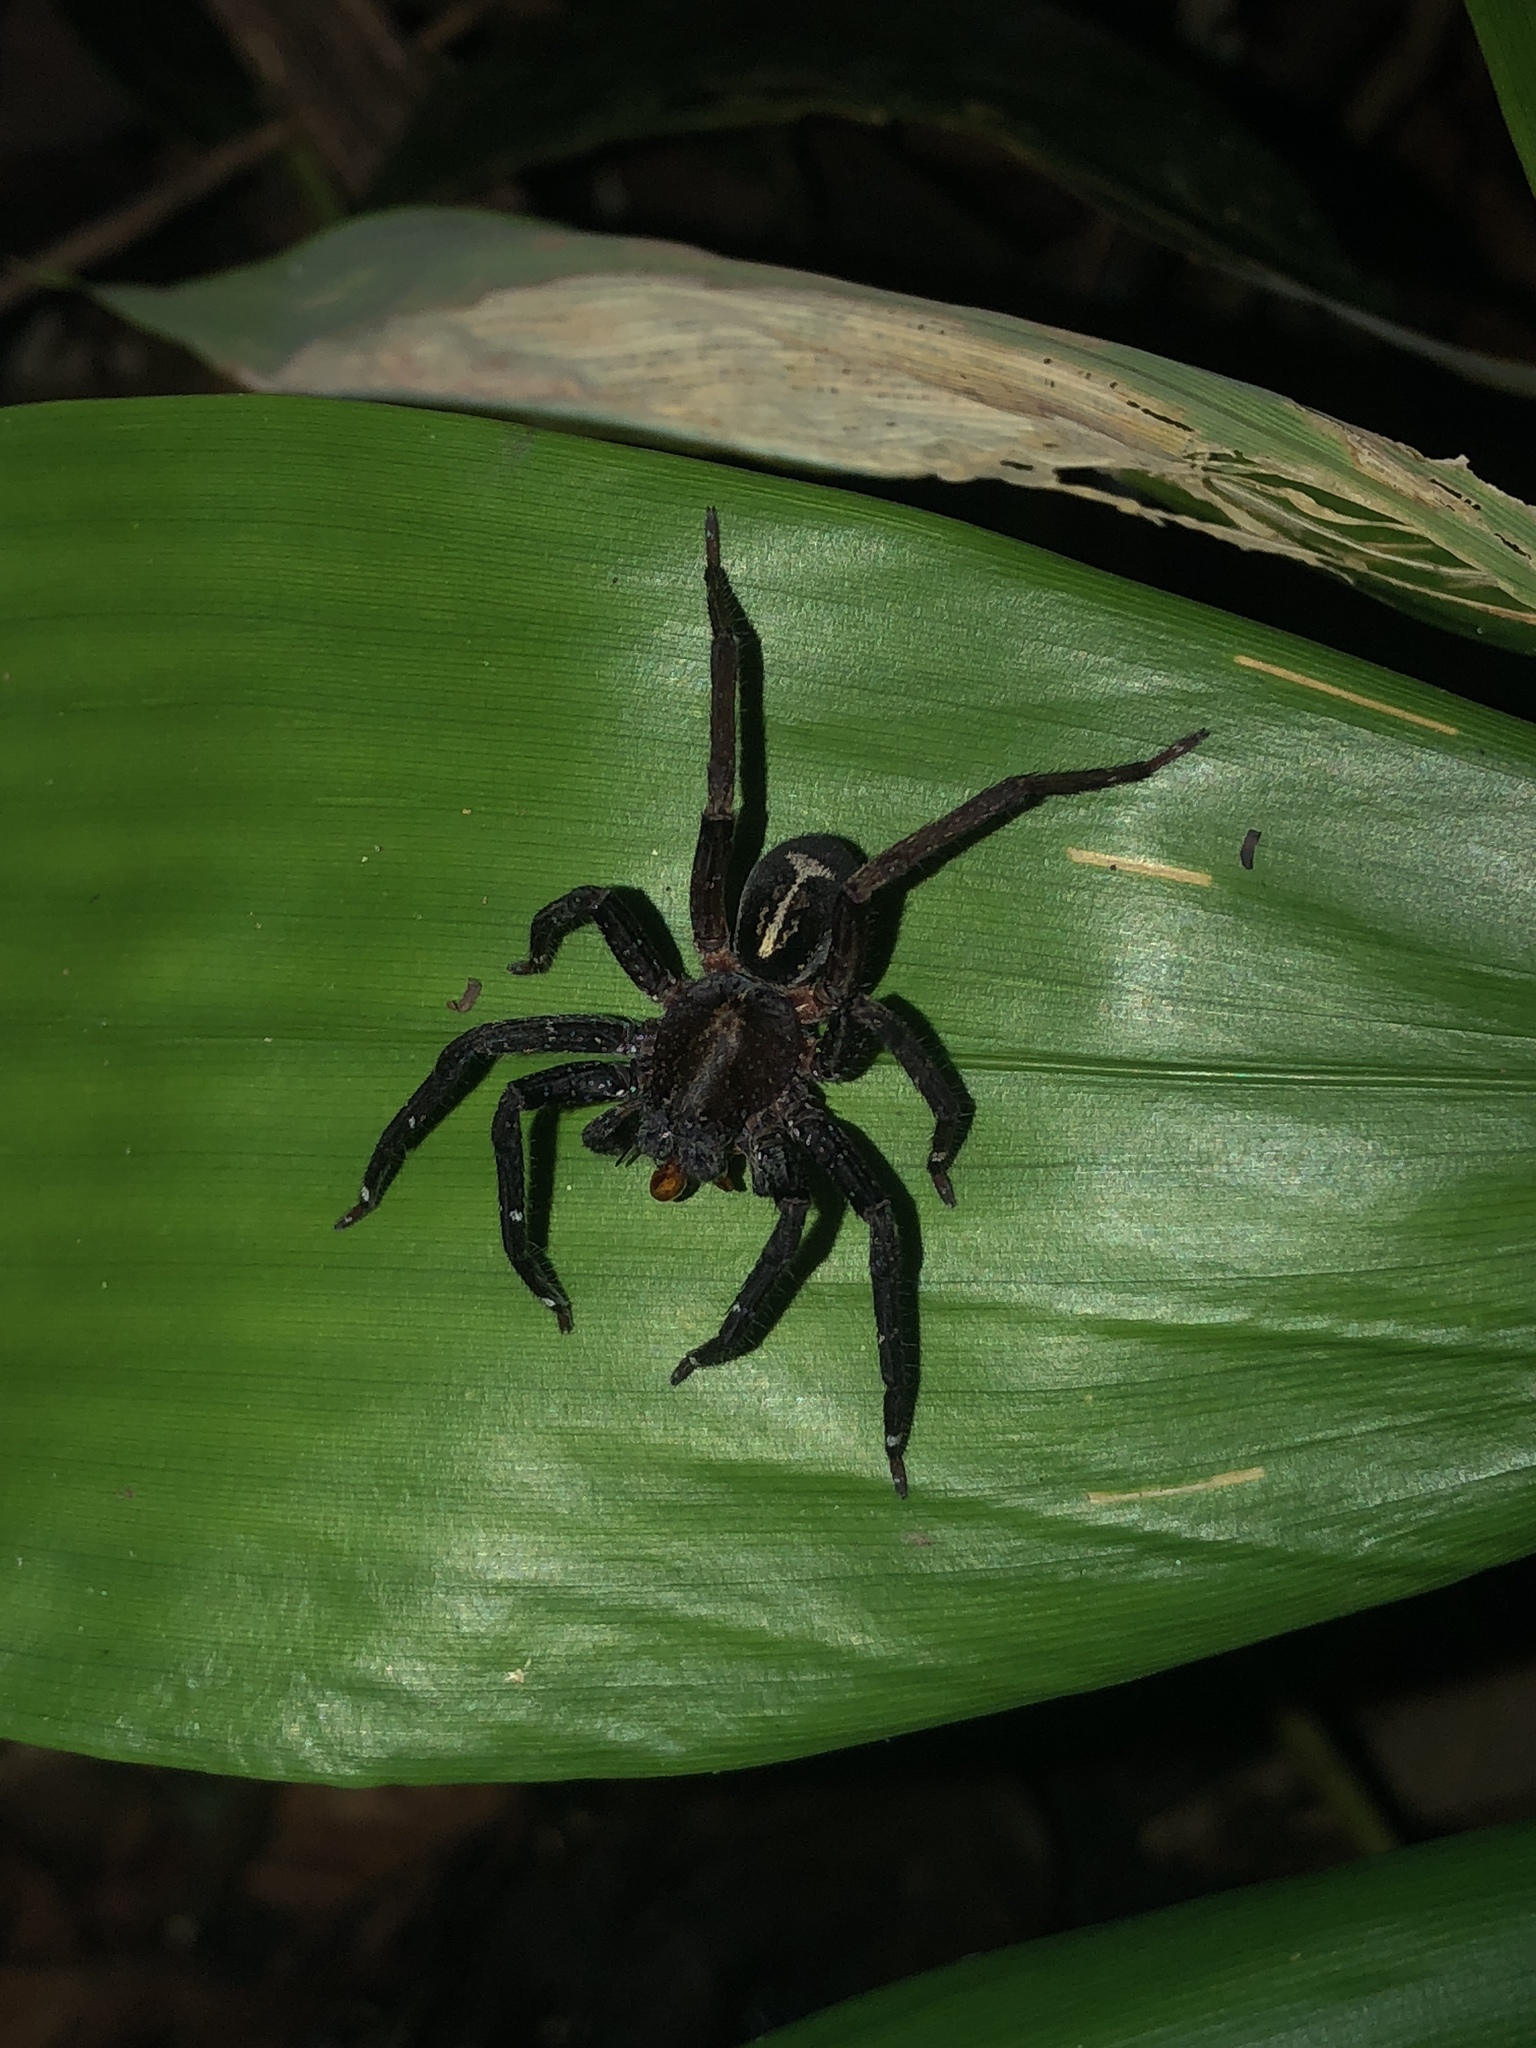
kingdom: Animalia
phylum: Arthropoda
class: Arachnida
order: Araneae
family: Ctenidae
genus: Ctenus
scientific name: Ctenus amphora
